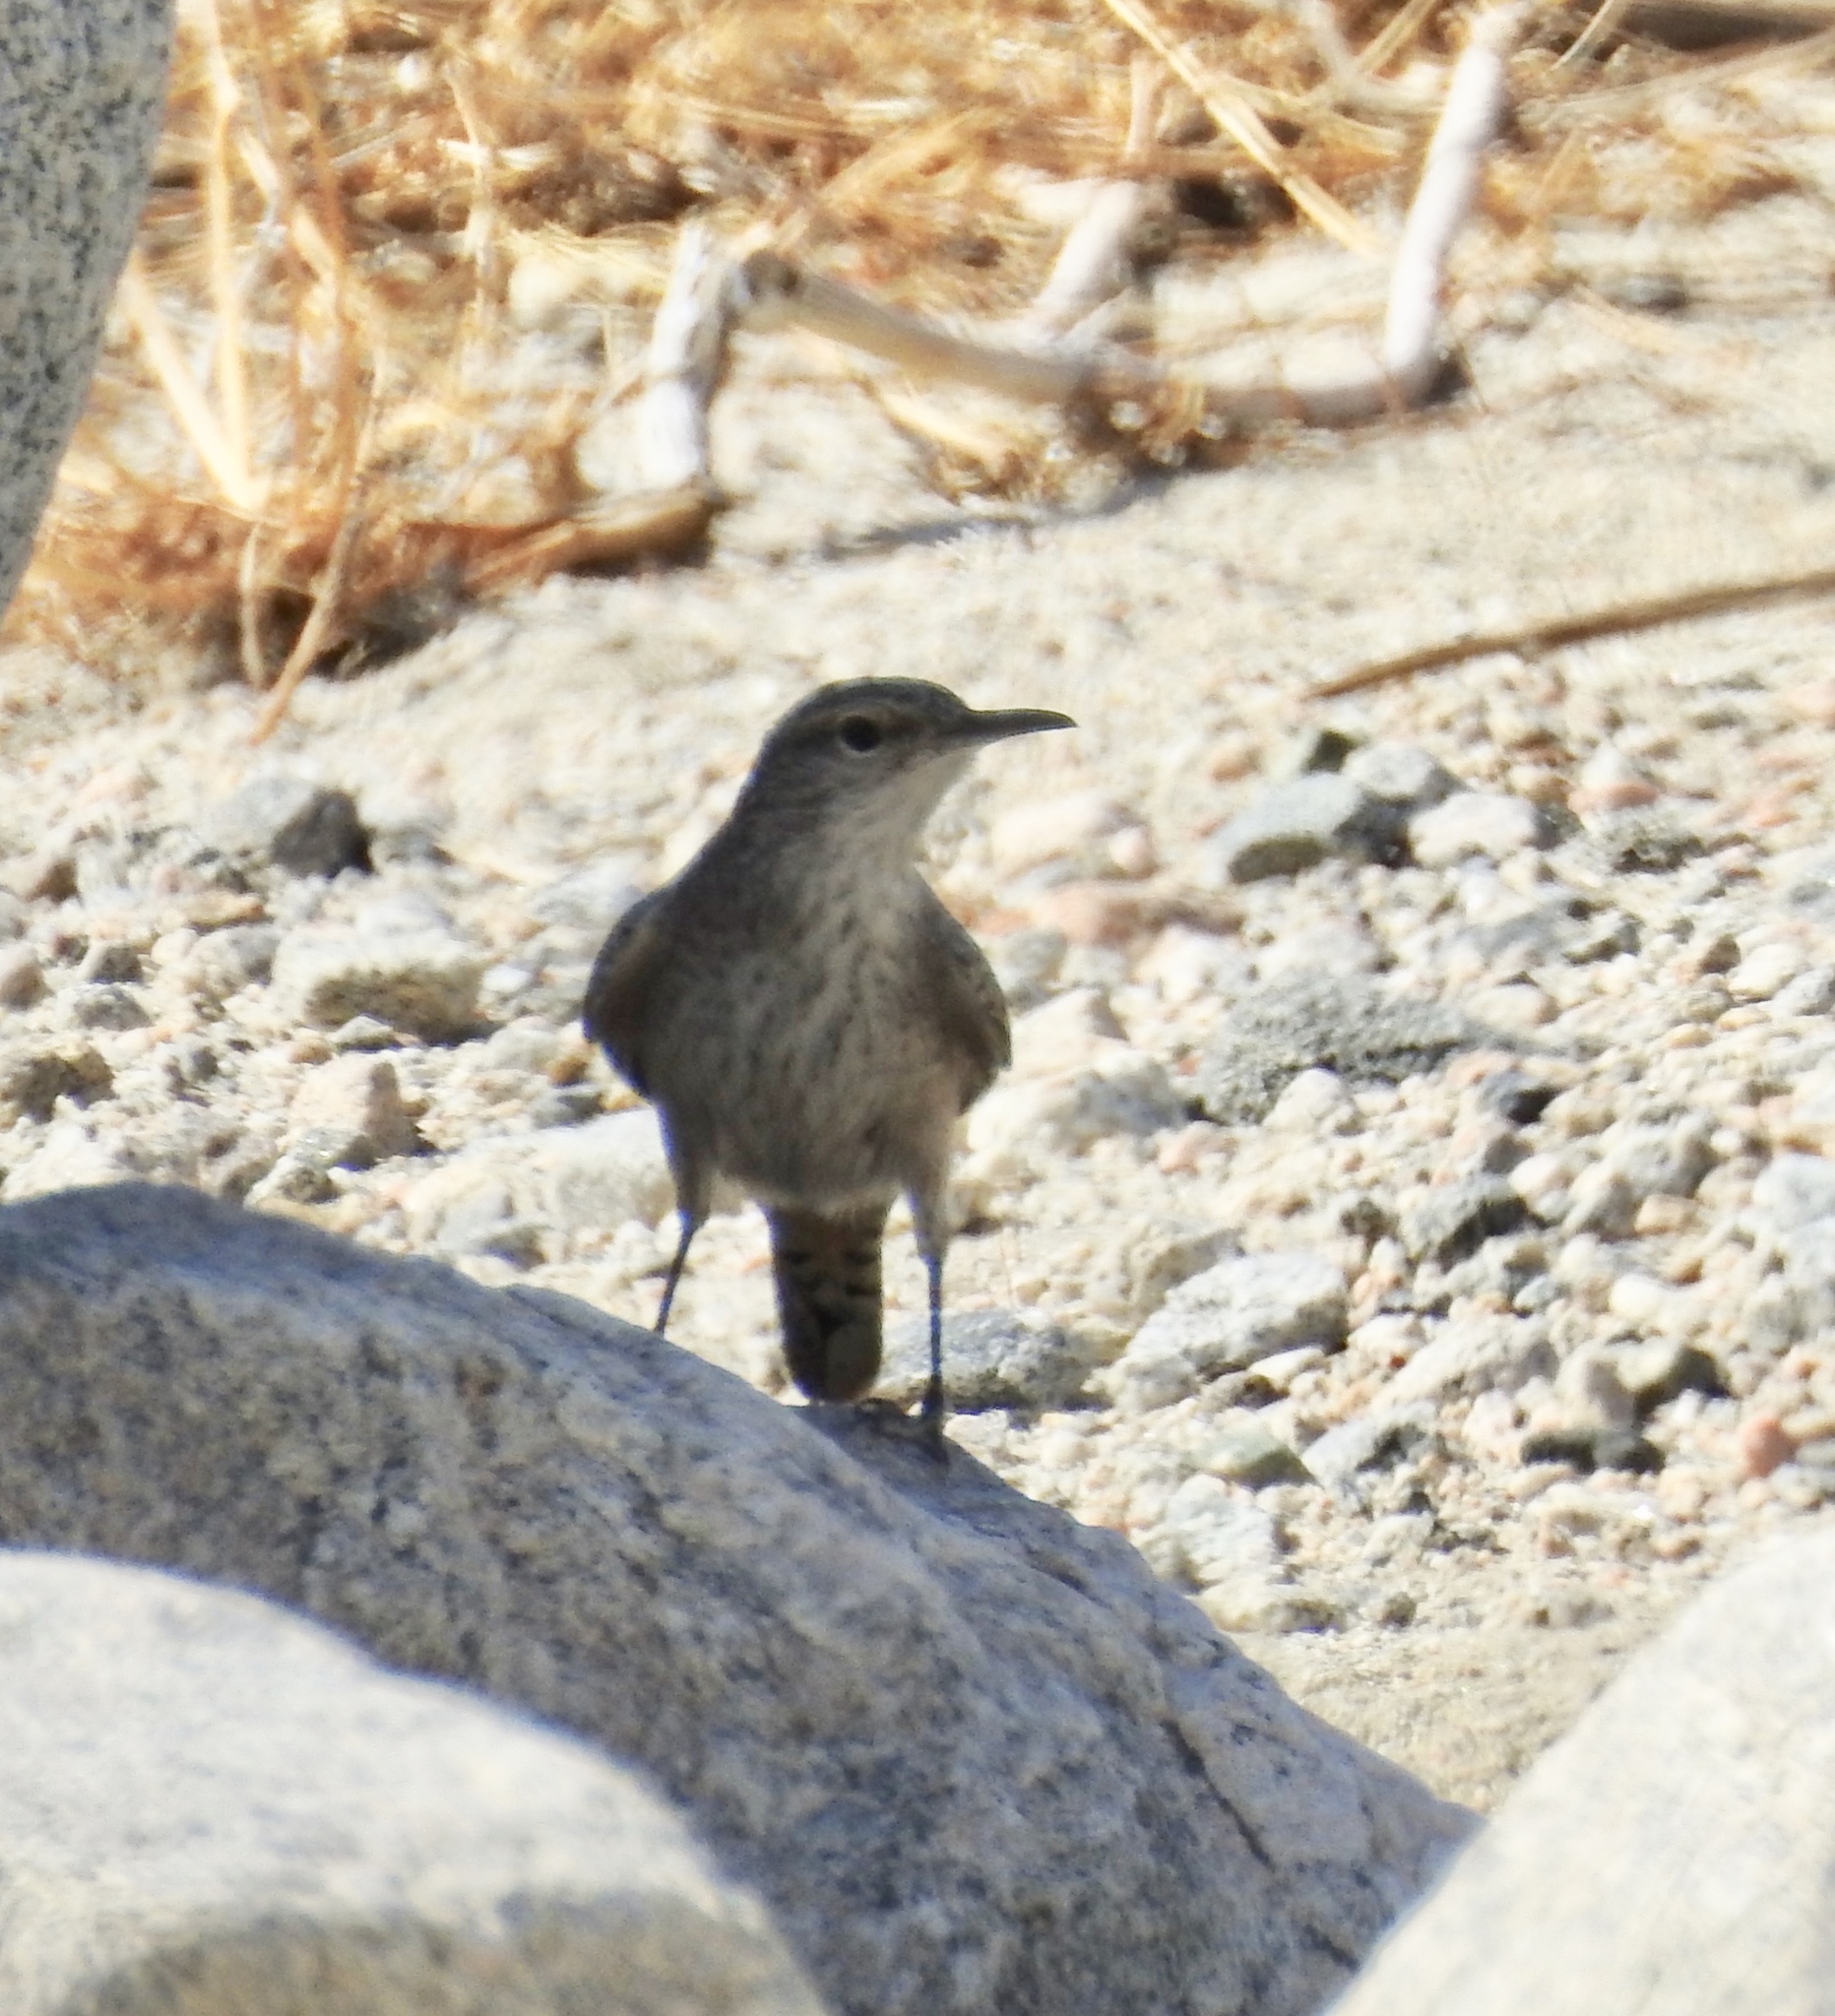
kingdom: Animalia
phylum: Chordata
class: Aves
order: Passeriformes
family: Troglodytidae
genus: Salpinctes
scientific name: Salpinctes obsoletus
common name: Rock wren
